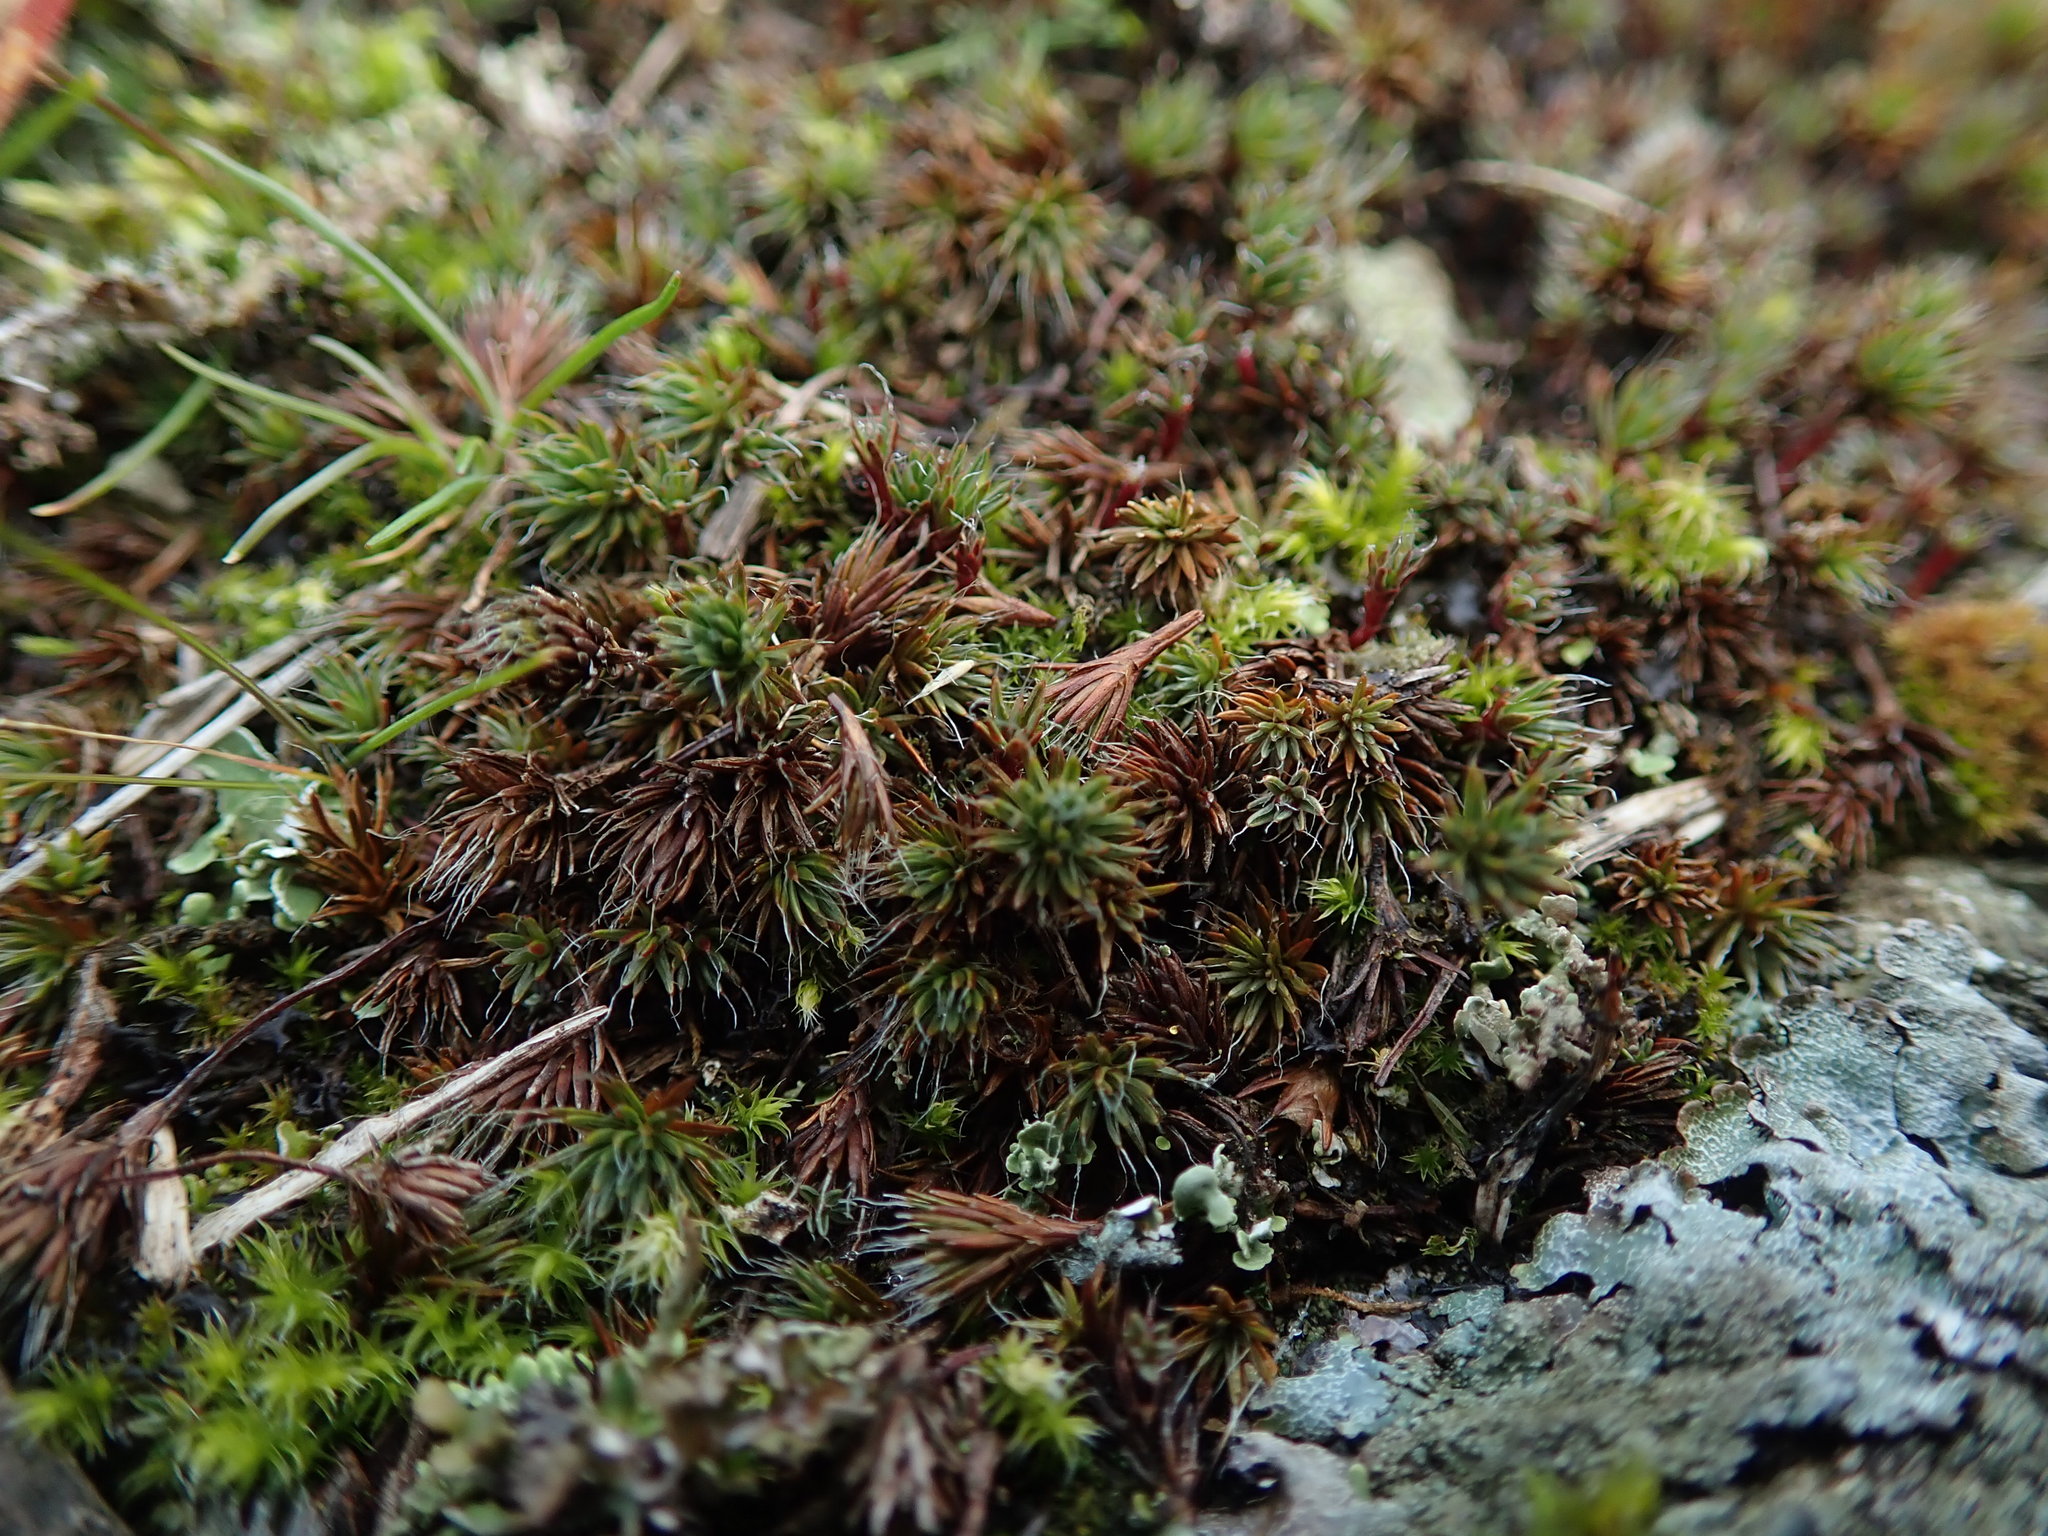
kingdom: Plantae
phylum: Bryophyta
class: Polytrichopsida
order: Polytrichales
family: Polytrichaceae
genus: Polytrichum
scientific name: Polytrichum piliferum
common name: Bristly haircap
